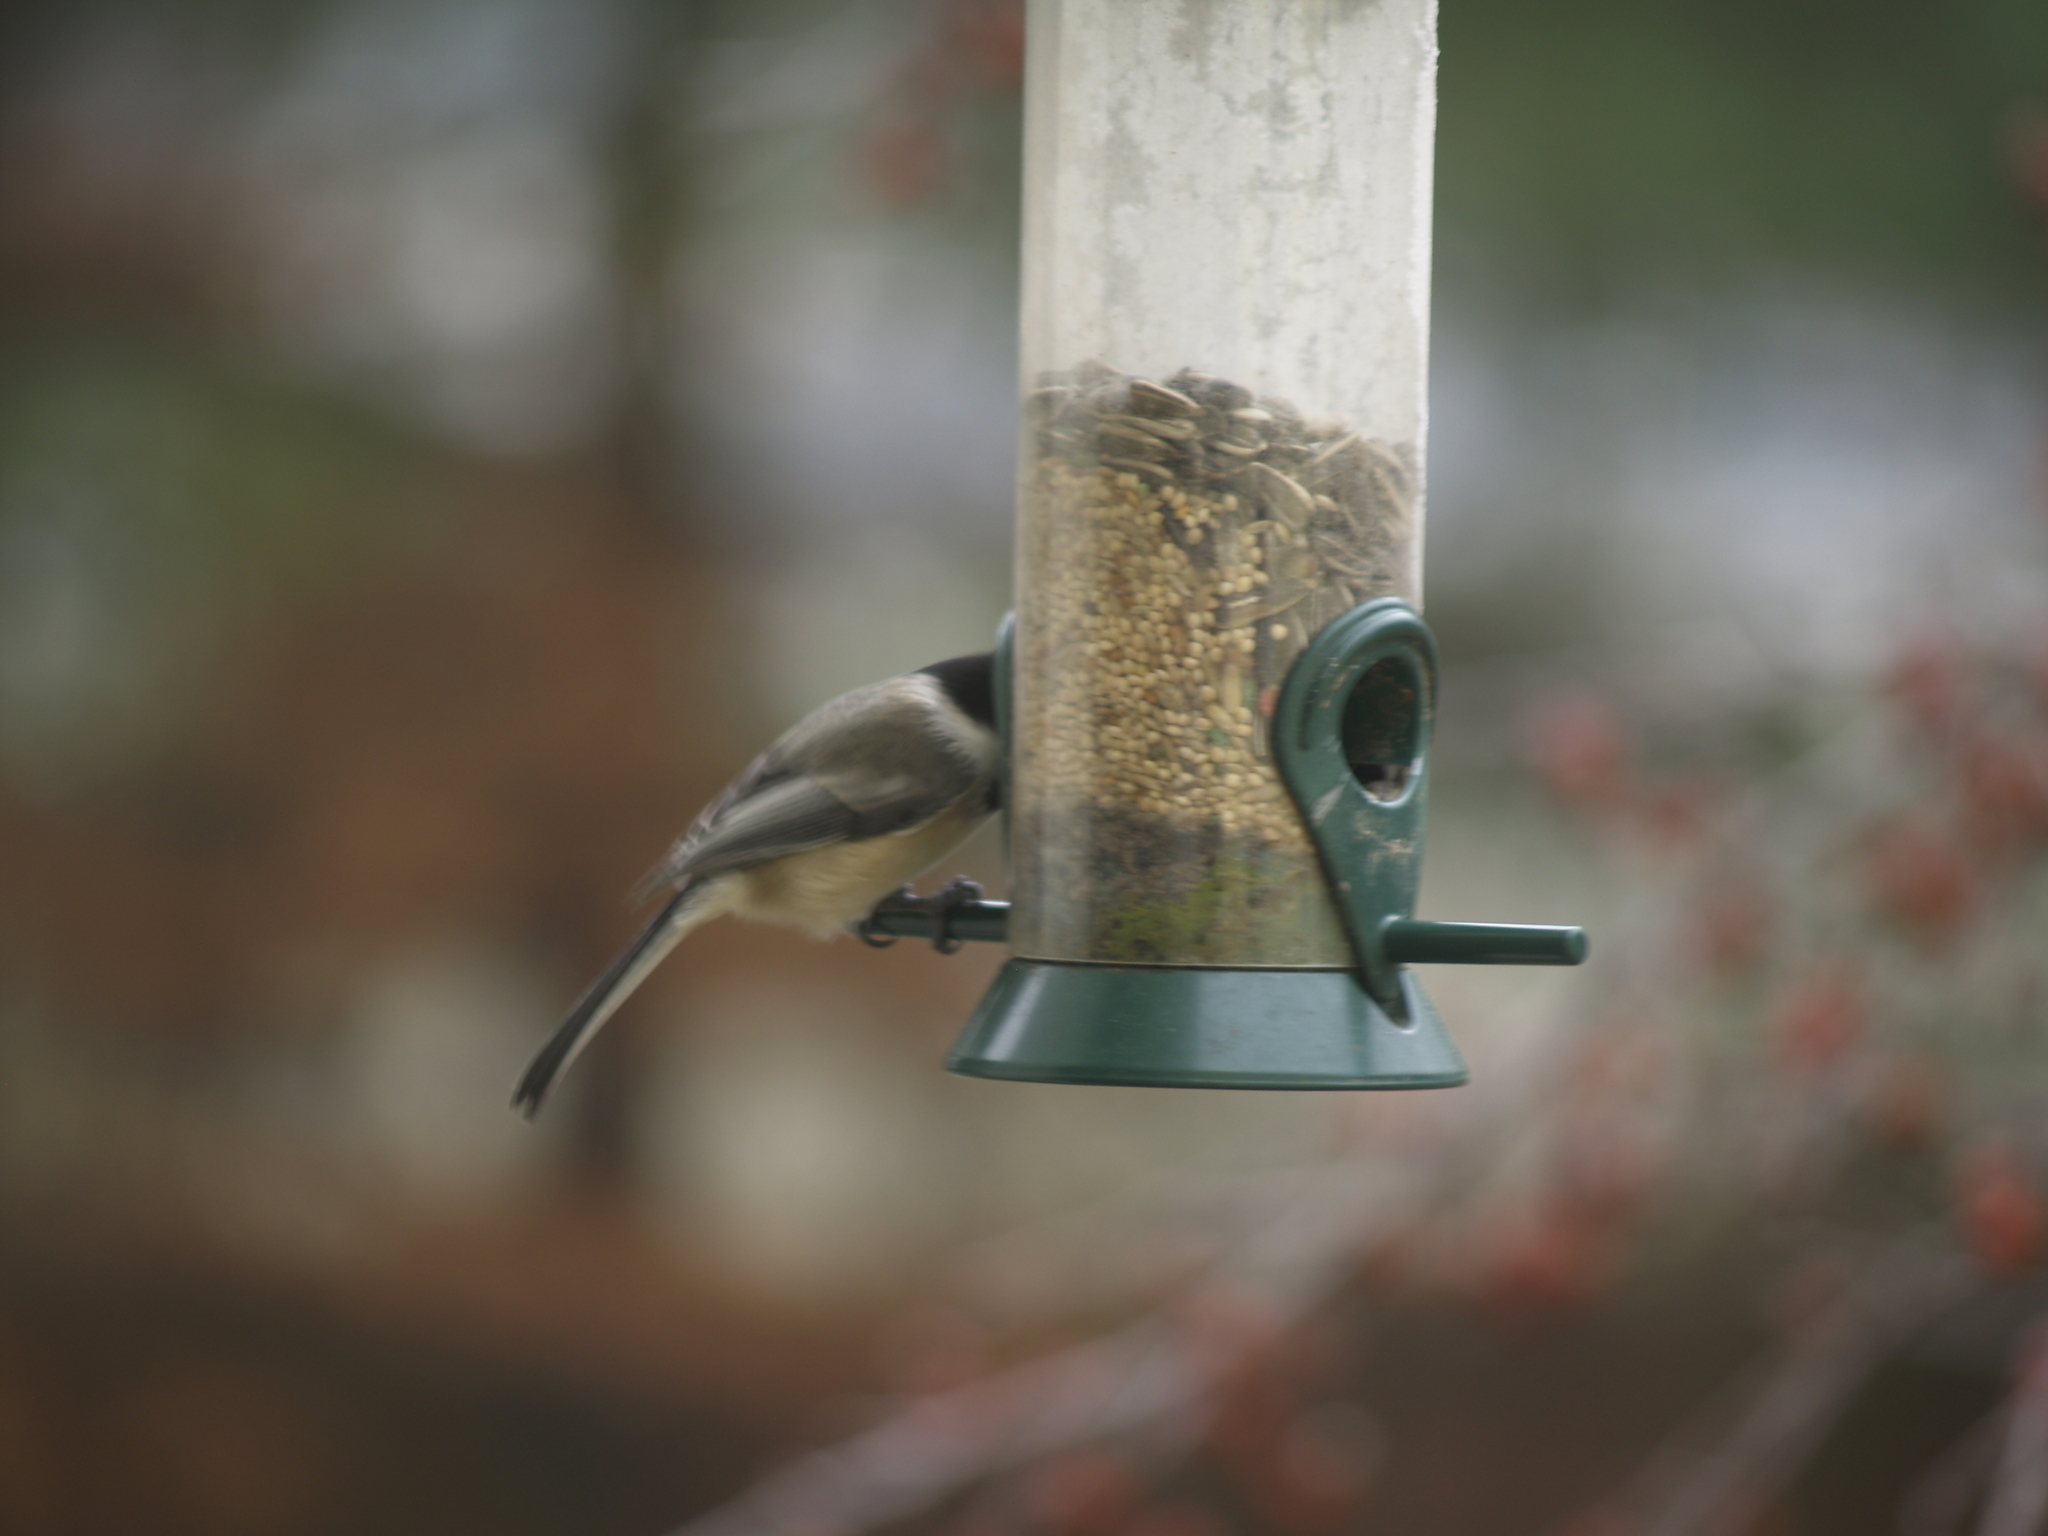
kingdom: Animalia
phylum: Chordata
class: Aves
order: Passeriformes
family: Paridae
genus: Poecile
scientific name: Poecile atricapillus
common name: Black-capped chickadee
